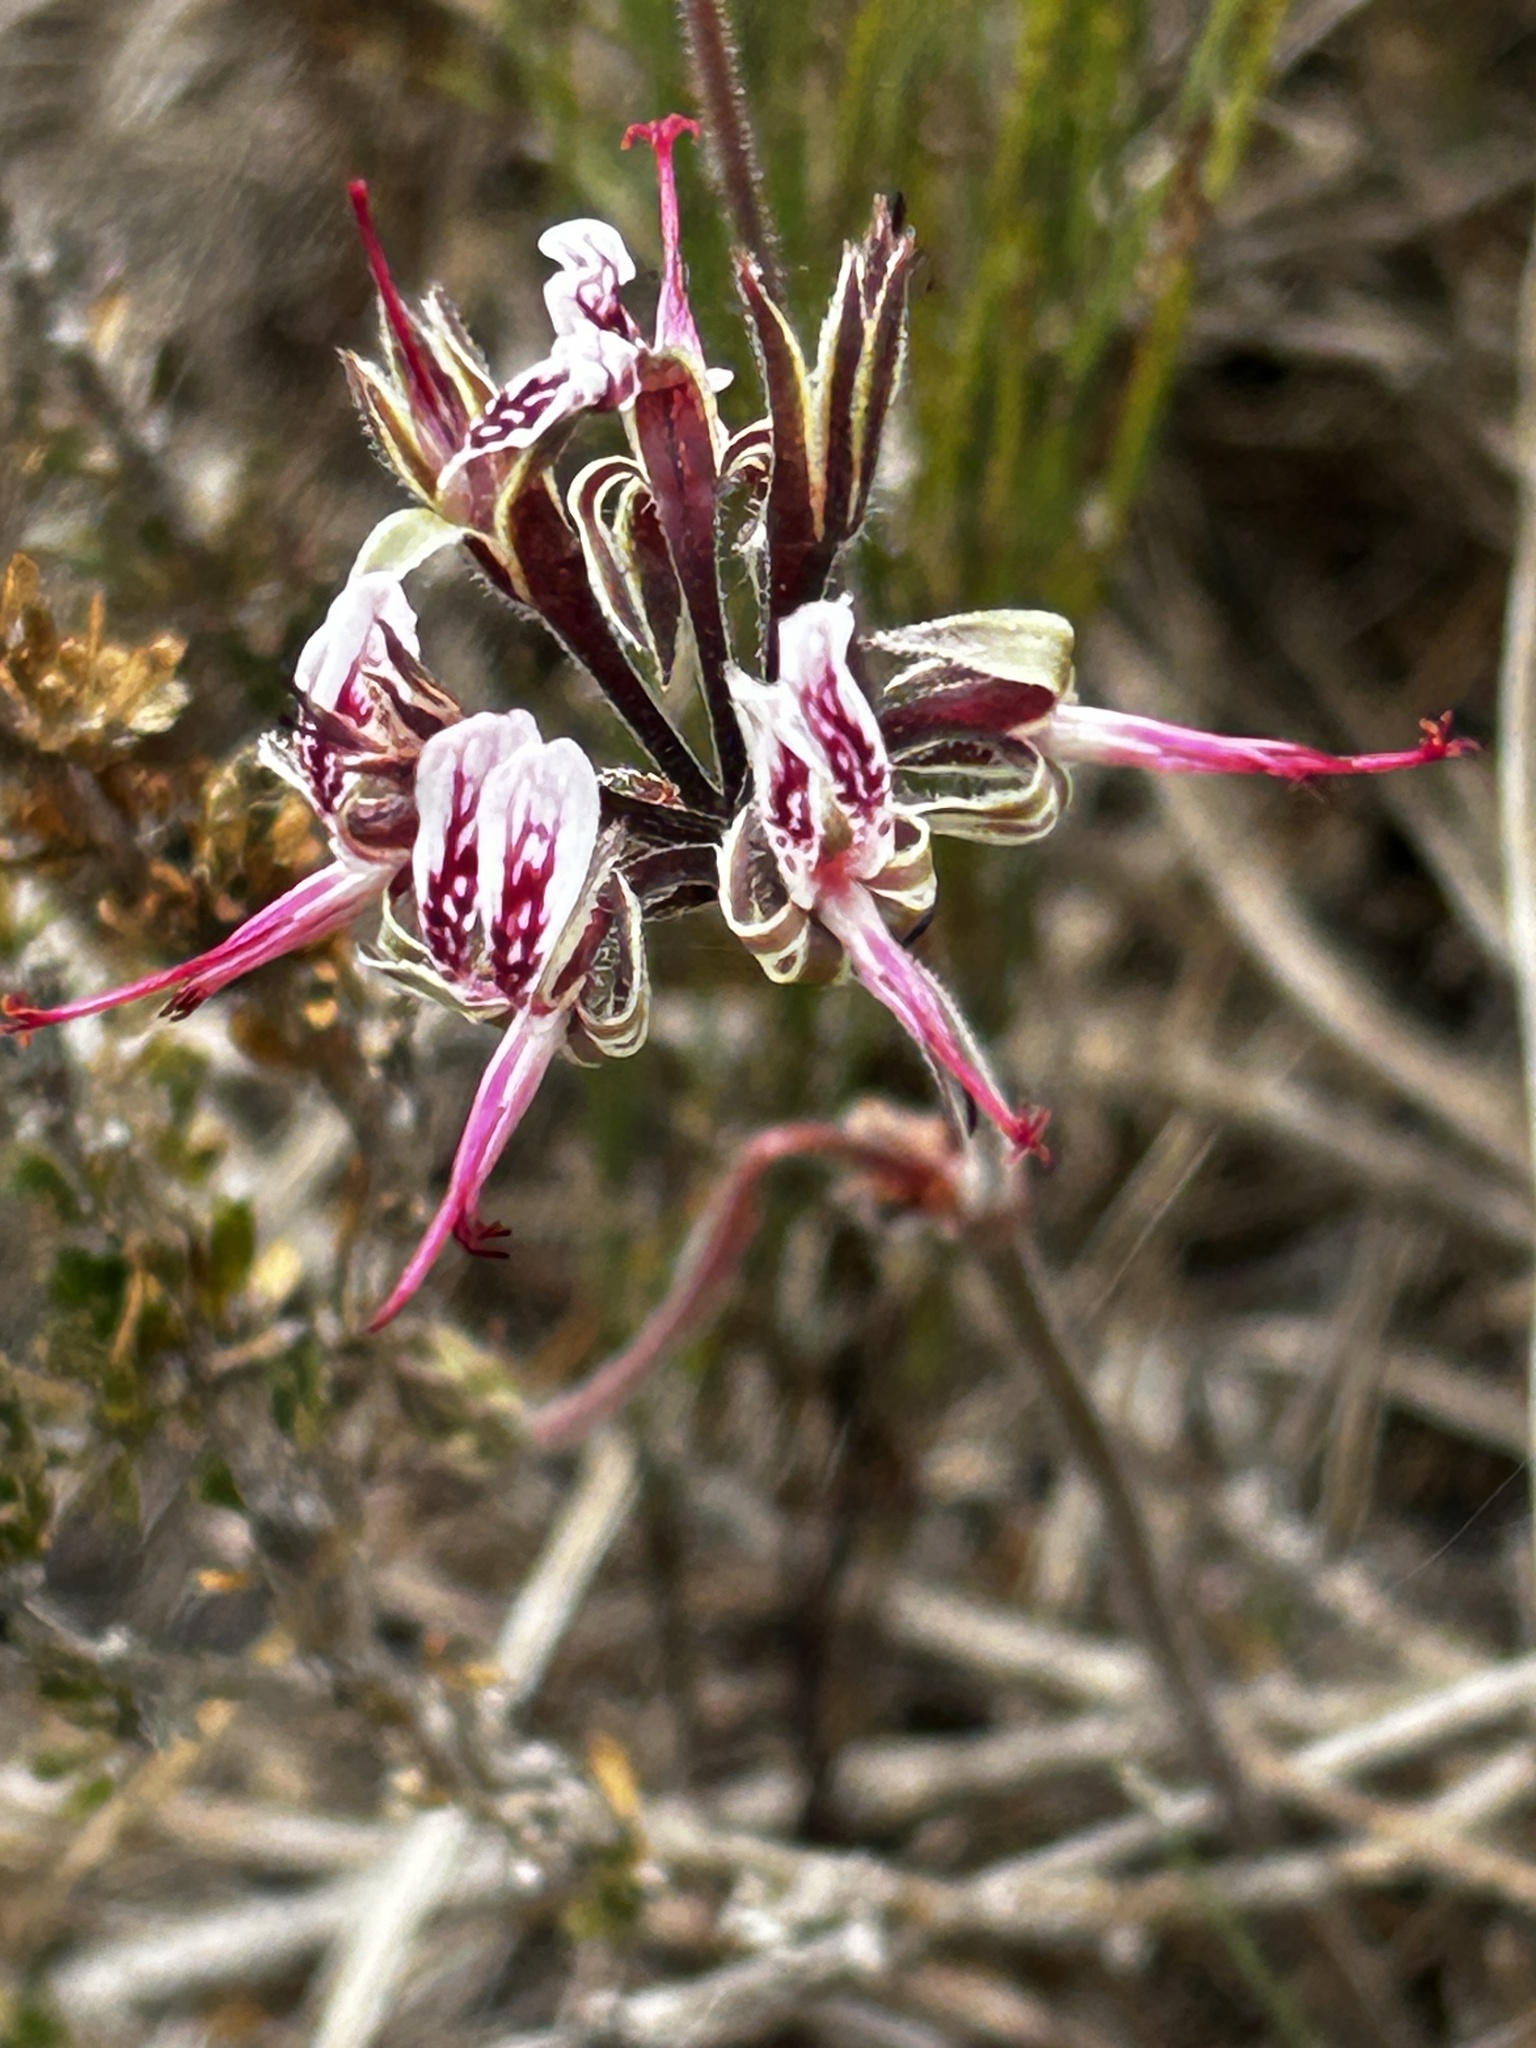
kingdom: Plantae
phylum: Tracheophyta
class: Magnoliopsida
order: Geraniales
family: Geraniaceae
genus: Pelargonium
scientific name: Pelargonium dipetalum
